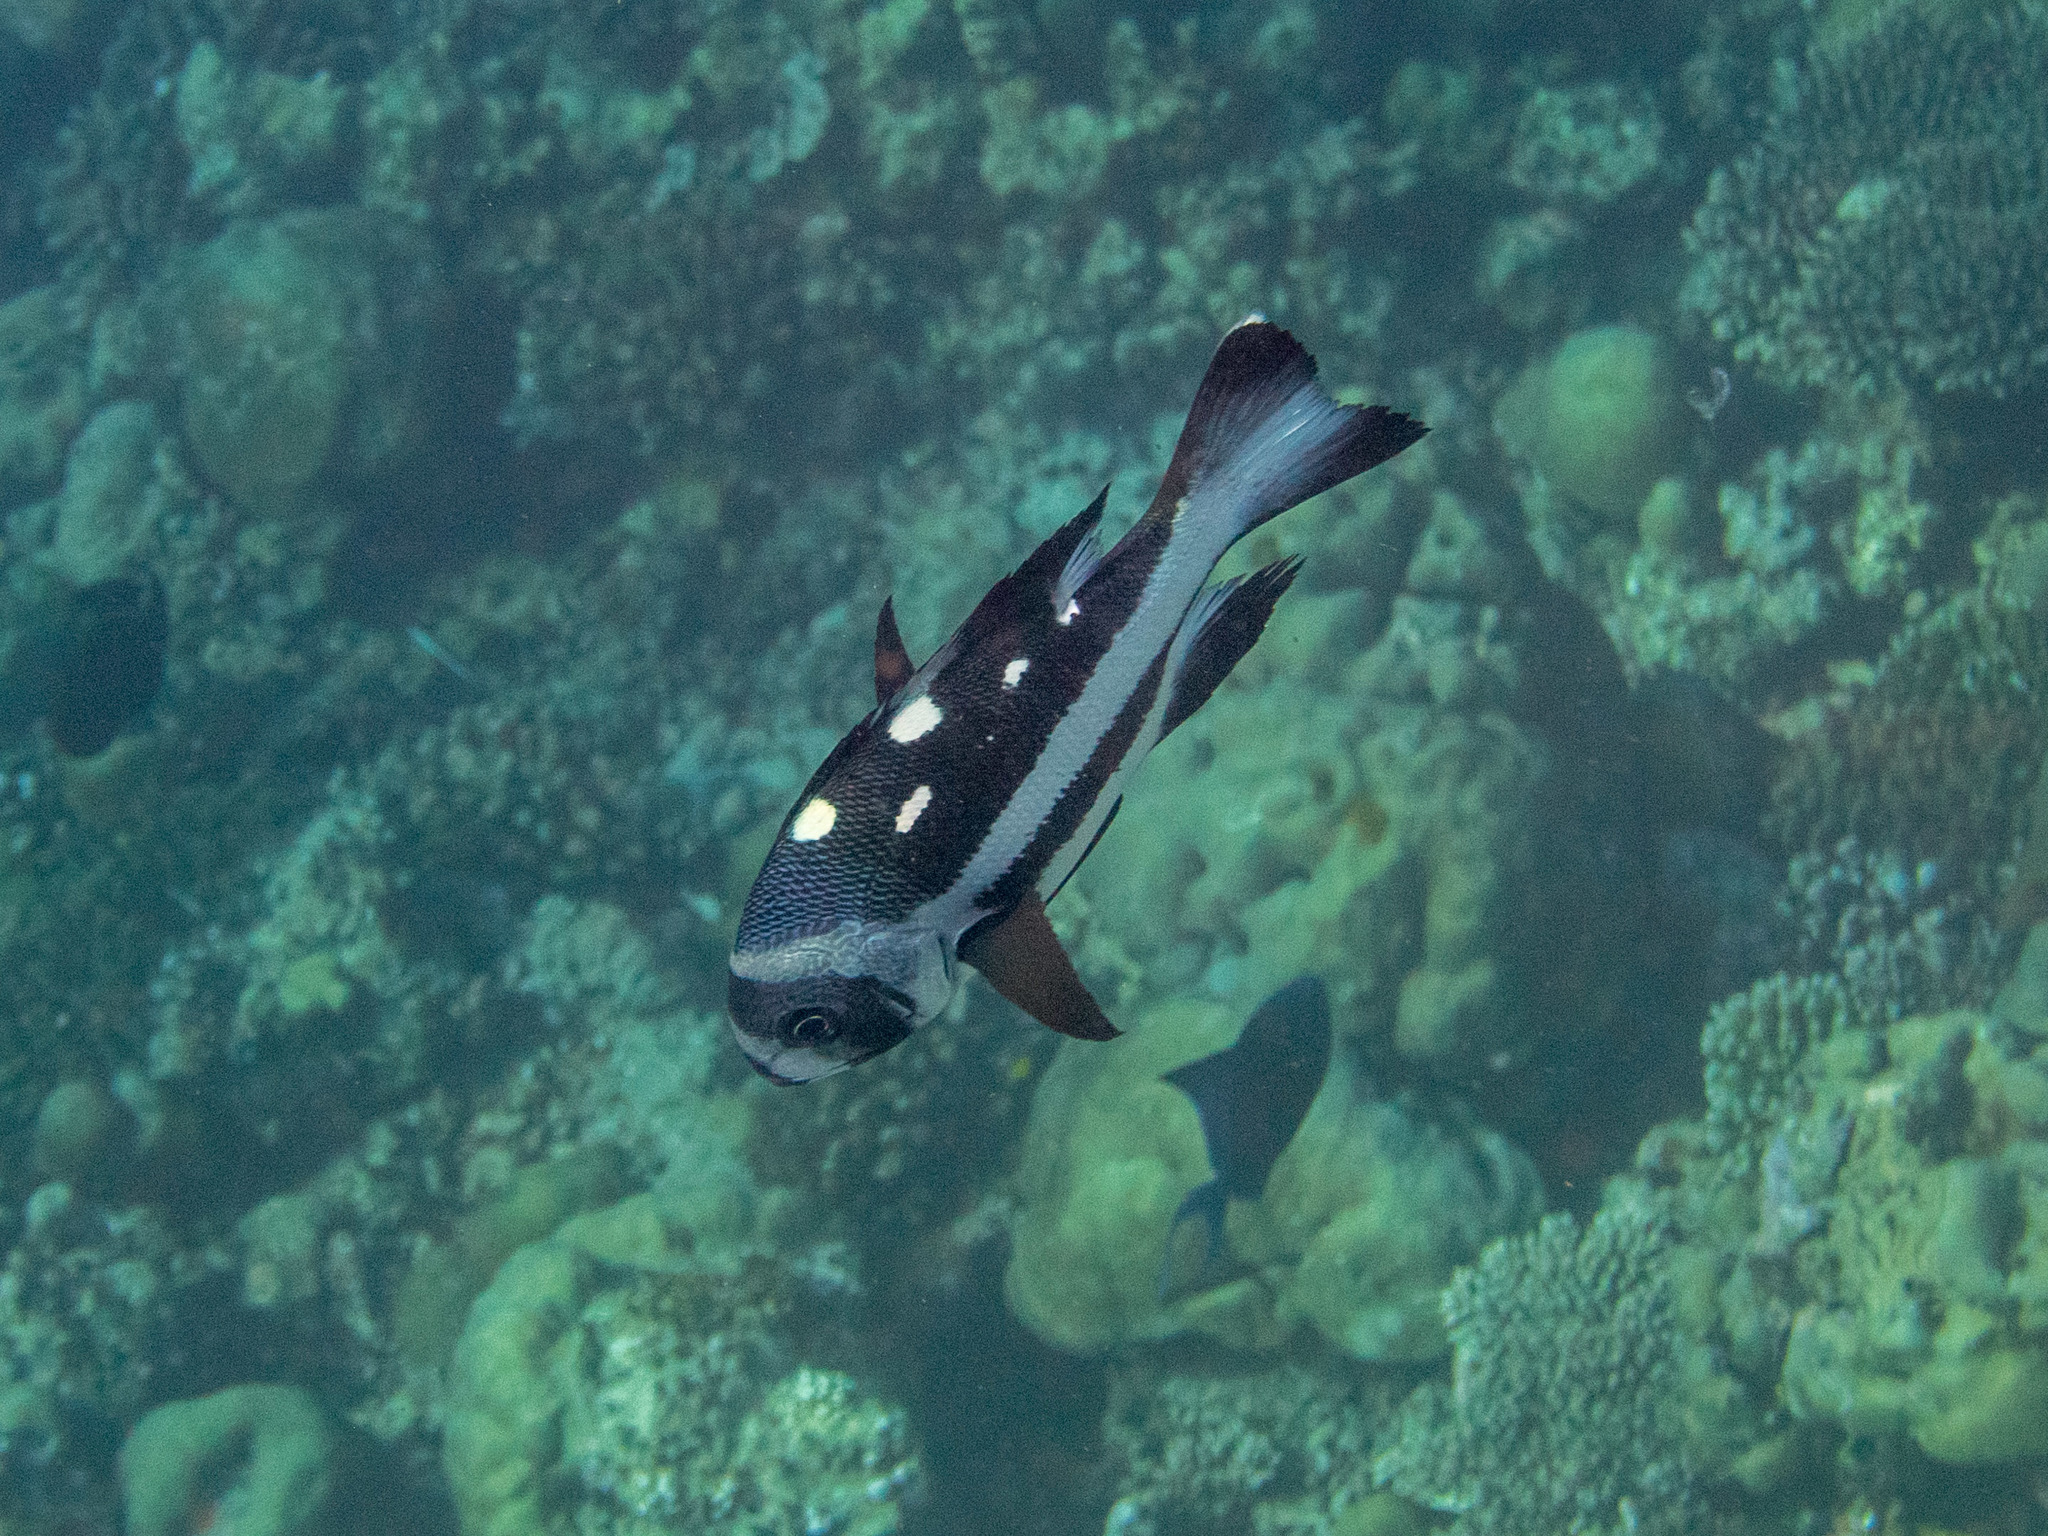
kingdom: Animalia
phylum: Chordata
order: Perciformes
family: Lutjanidae
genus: Macolor
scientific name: Macolor niger
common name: Black snapper
